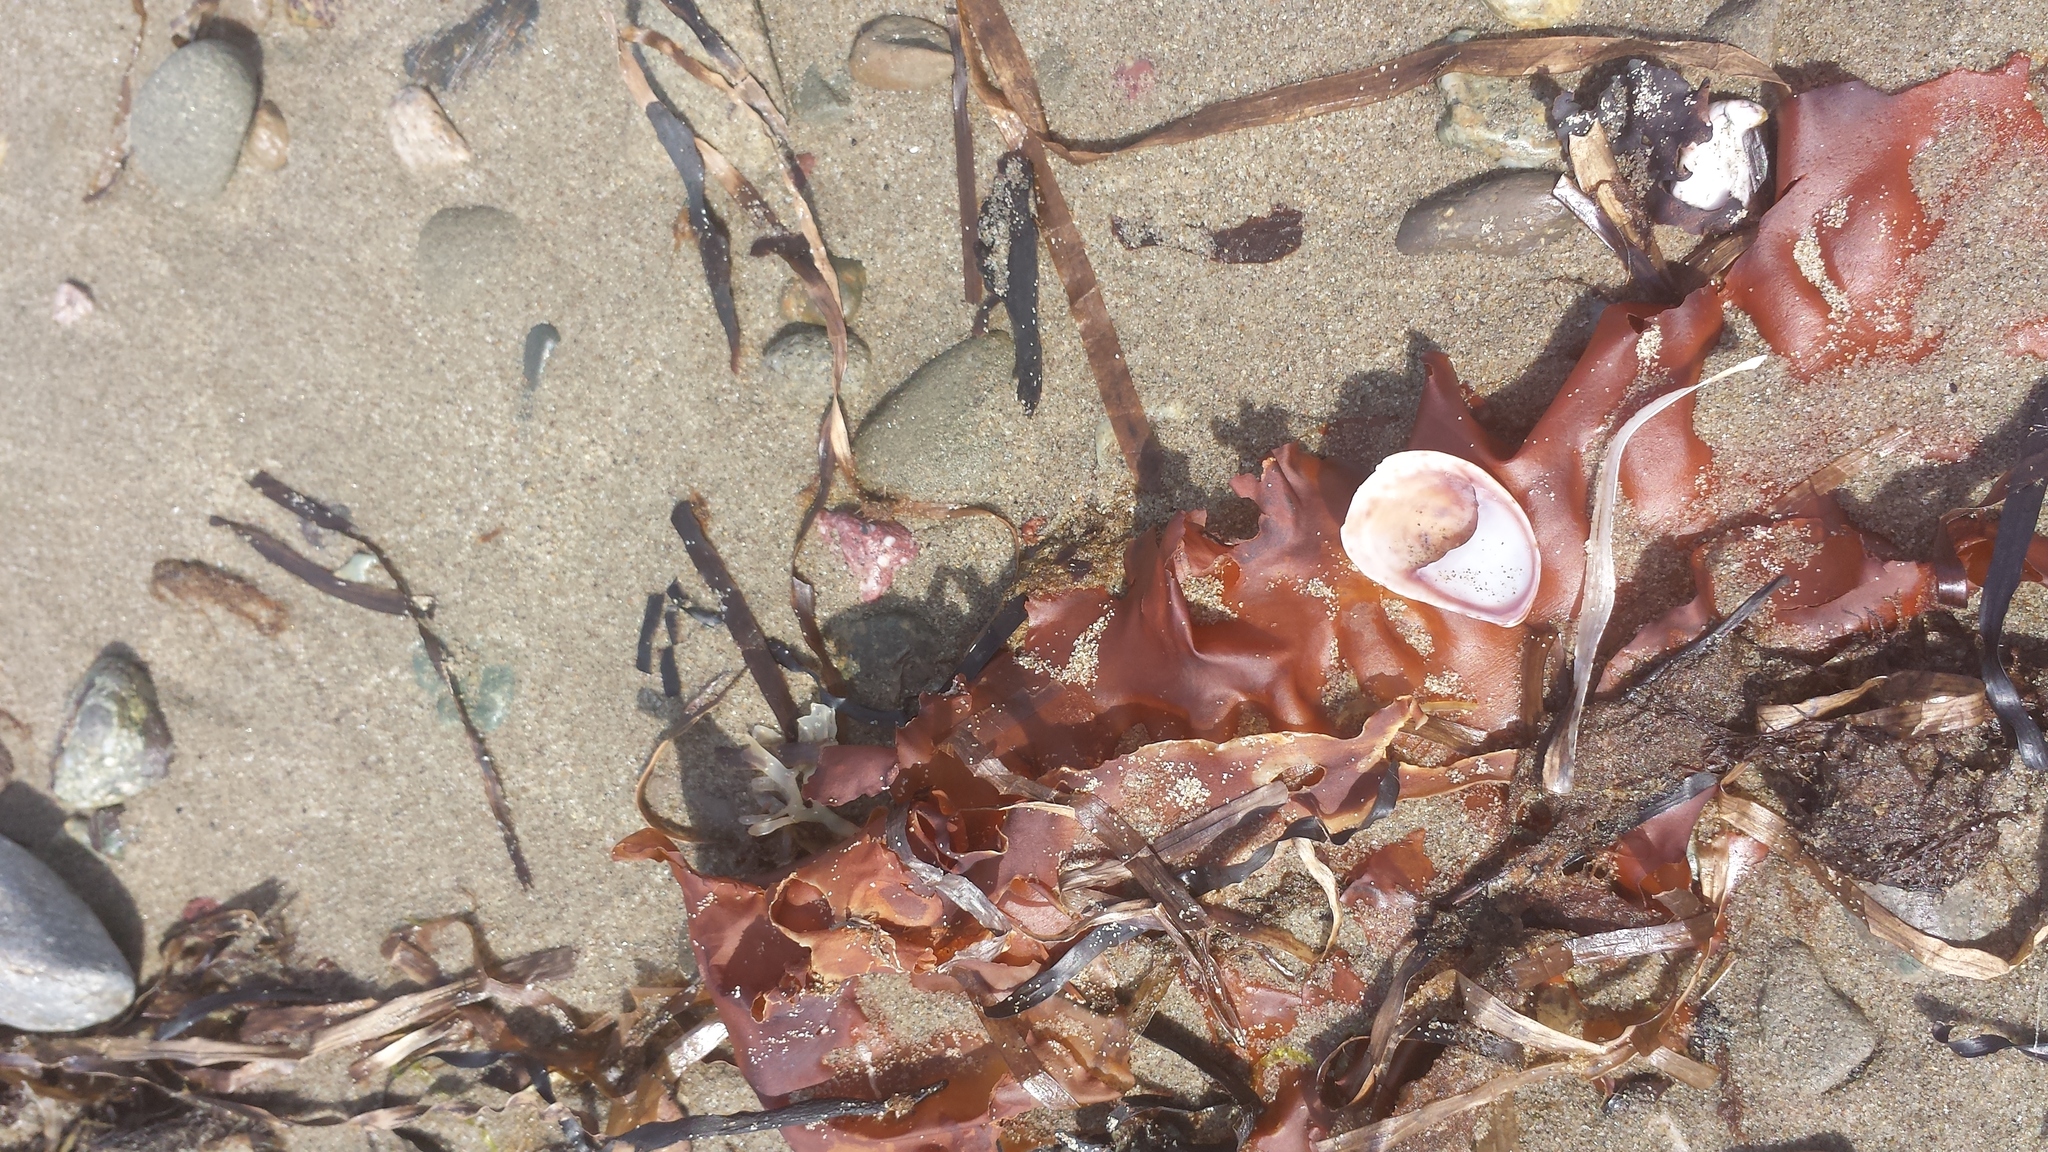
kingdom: Animalia
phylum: Mollusca
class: Gastropoda
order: Littorinimorpha
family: Calyptraeidae
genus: Crepidula
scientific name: Crepidula fornicata
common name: Slipper limpet
